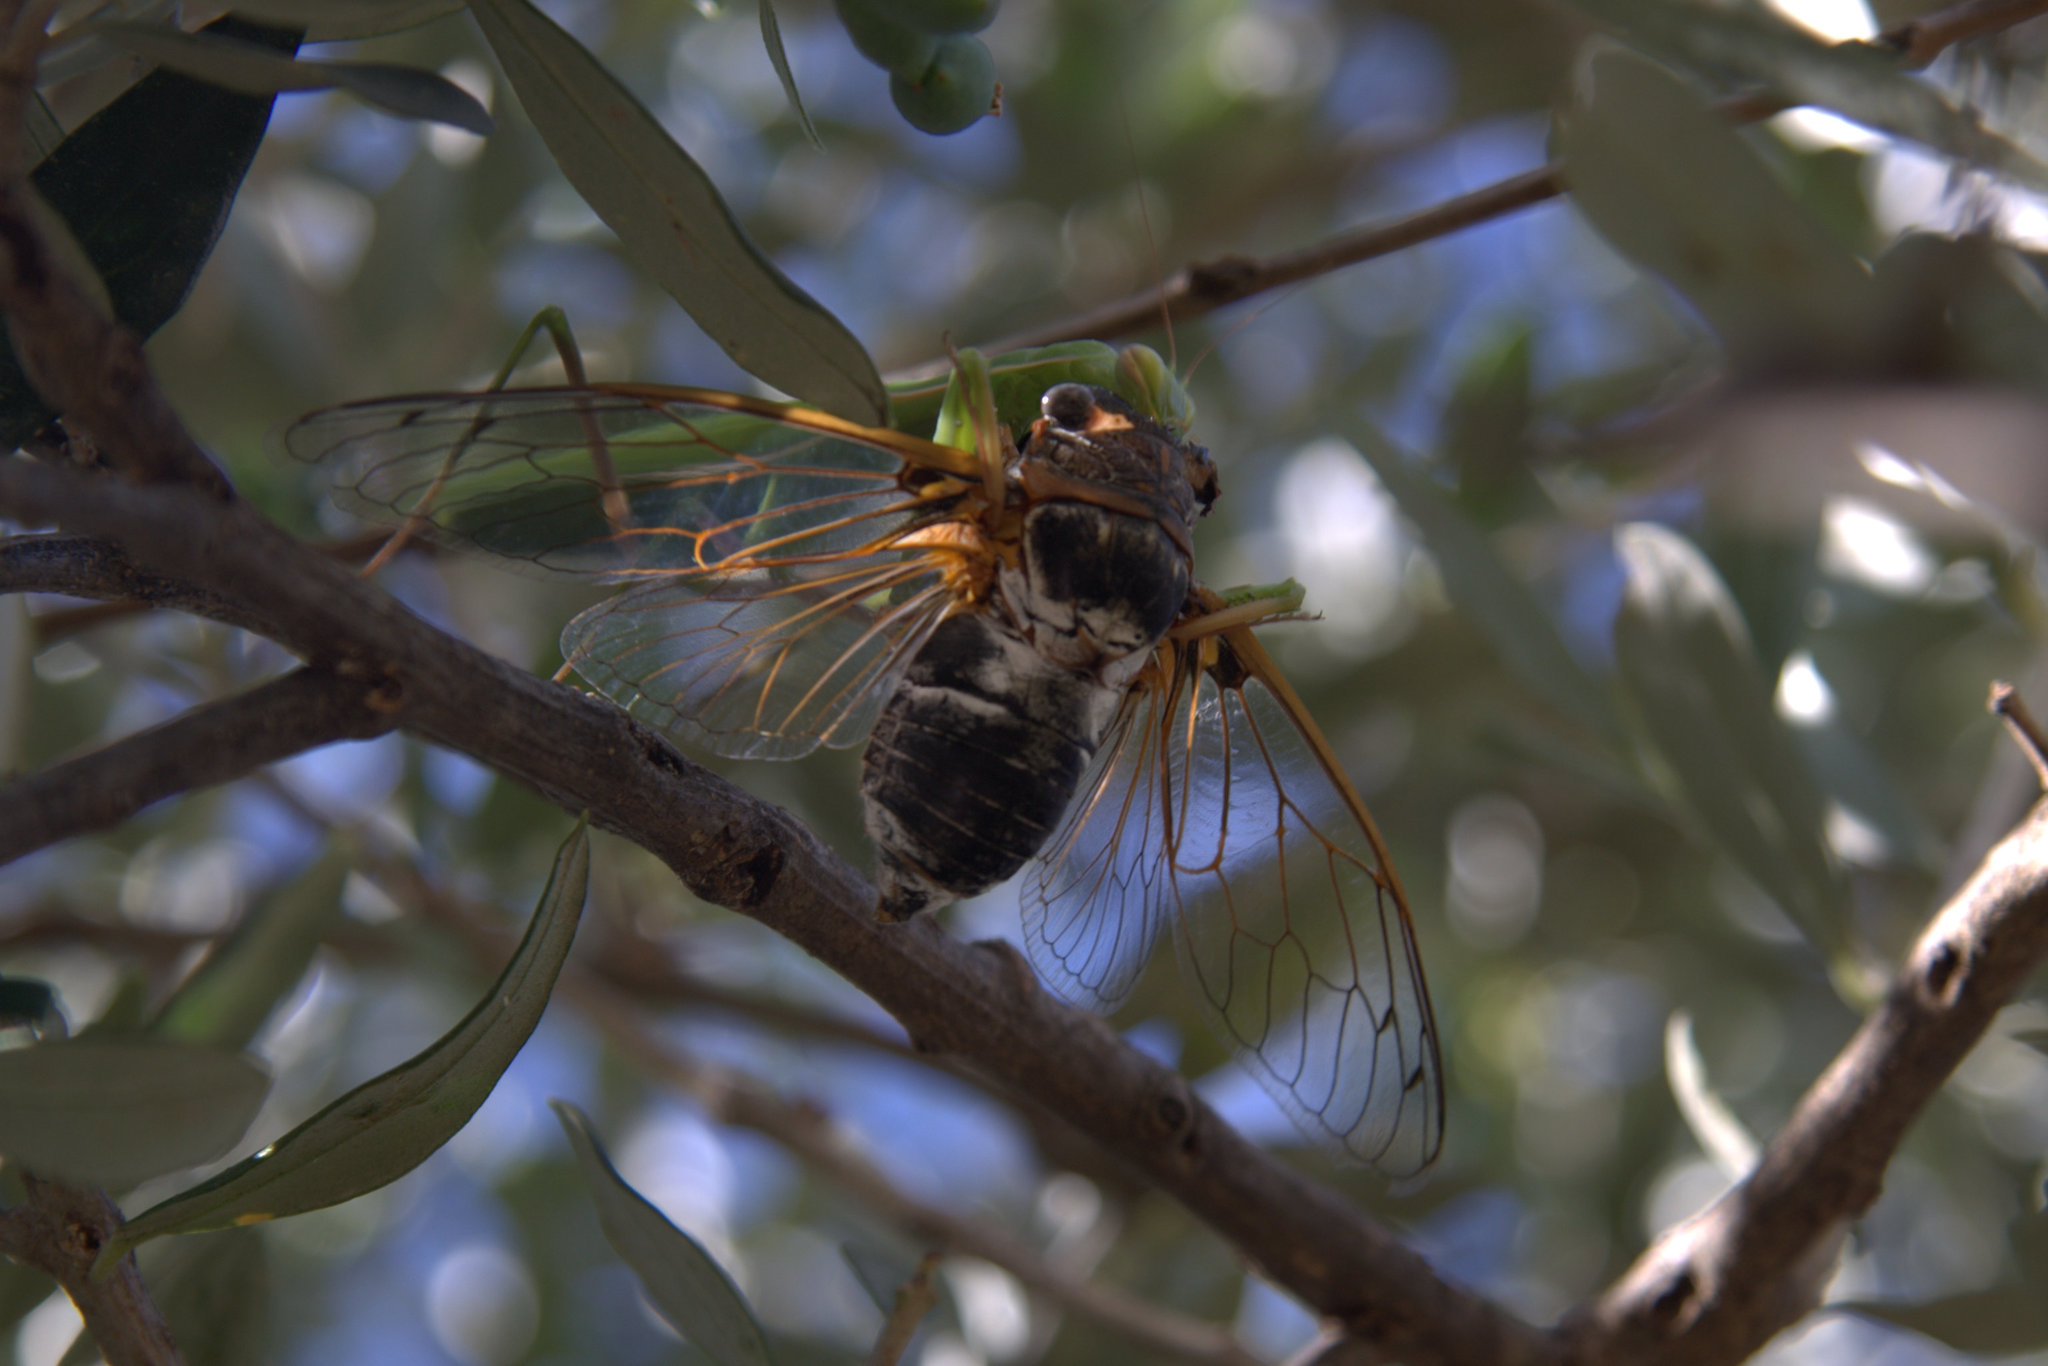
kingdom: Animalia
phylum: Arthropoda
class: Insecta
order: Mantodea
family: Mantidae
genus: Mantis
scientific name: Mantis religiosa
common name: Praying mantis
